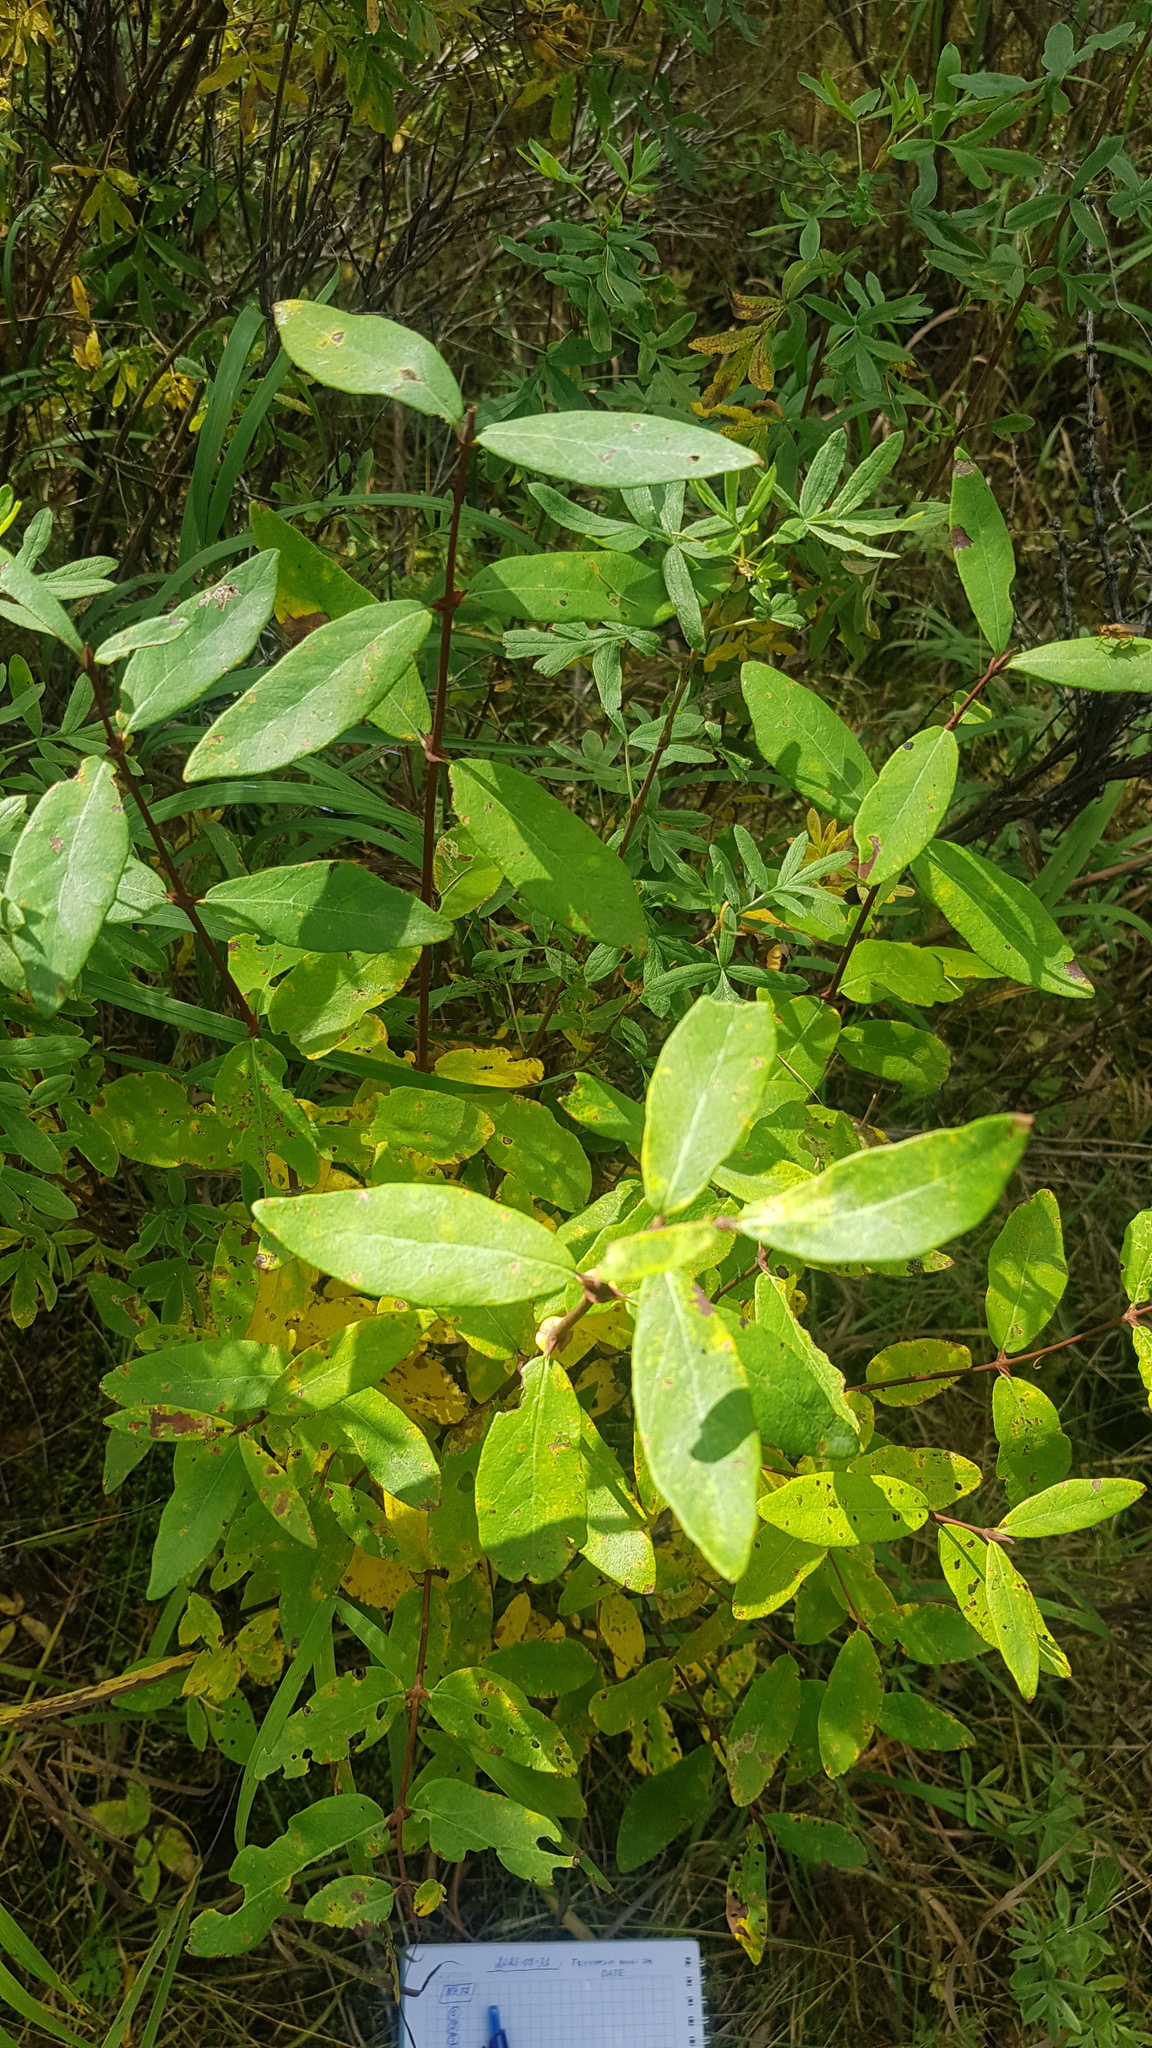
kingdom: Plantae
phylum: Tracheophyta
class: Magnoliopsida
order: Dipsacales
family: Caprifoliaceae
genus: Lonicera
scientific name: Lonicera caerulea
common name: Blue honeysuckle
